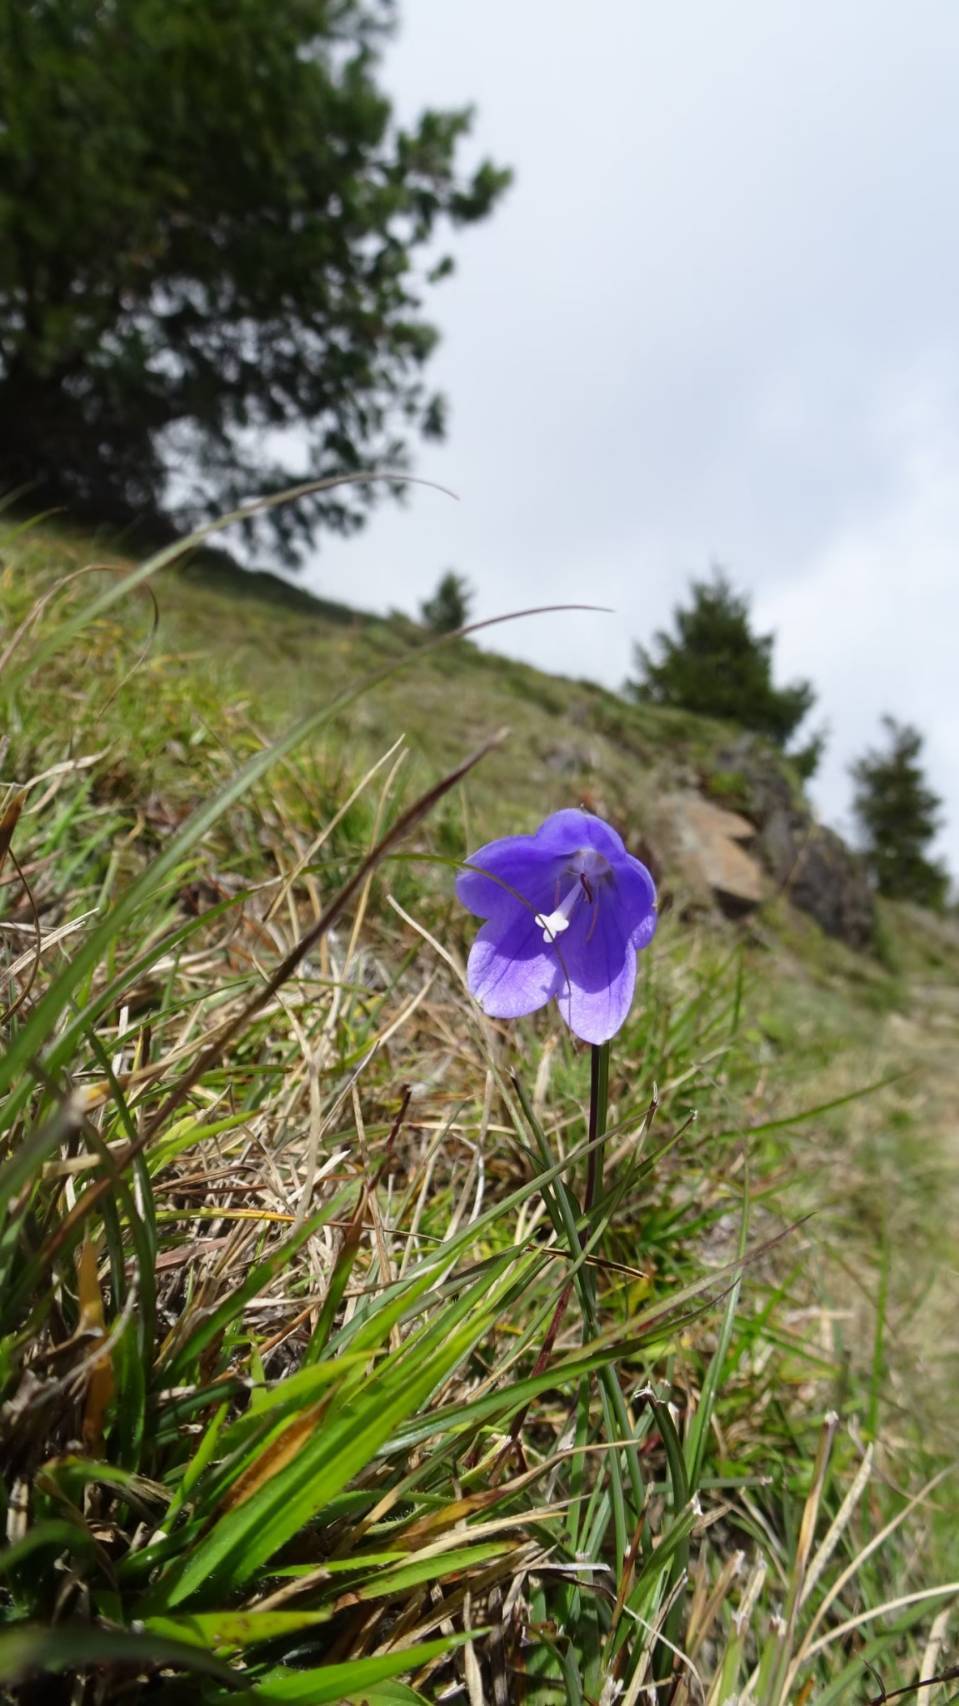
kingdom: Plantae
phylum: Tracheophyta
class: Magnoliopsida
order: Asterales
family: Campanulaceae
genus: Adenophora
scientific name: Adenophora morrisonensis
